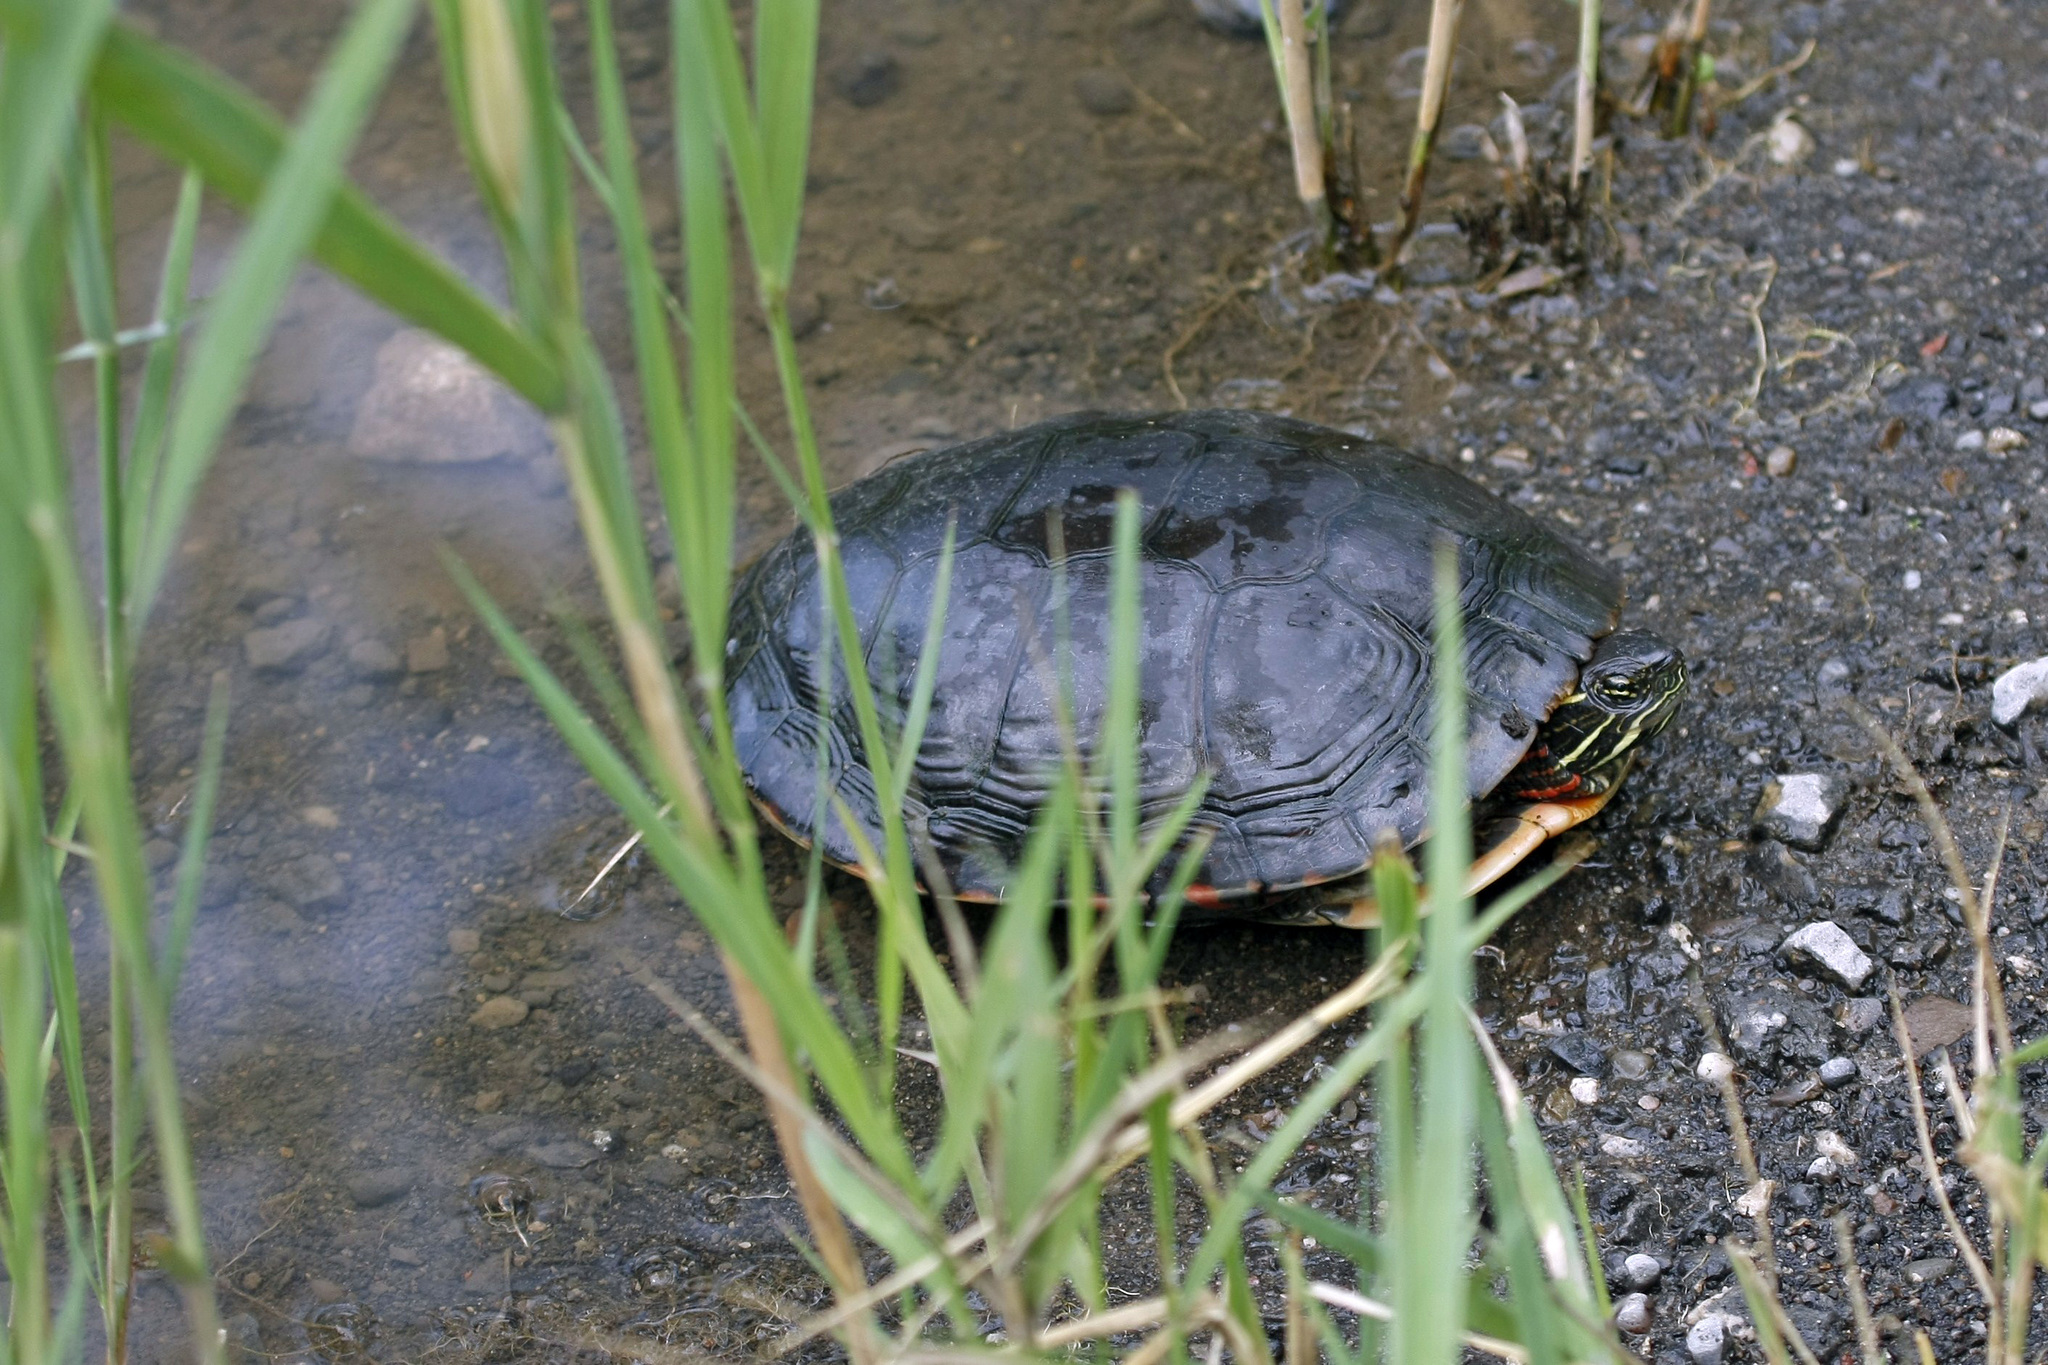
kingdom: Animalia
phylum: Chordata
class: Testudines
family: Emydidae
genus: Chrysemys
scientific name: Chrysemys picta
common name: Painted turtle
